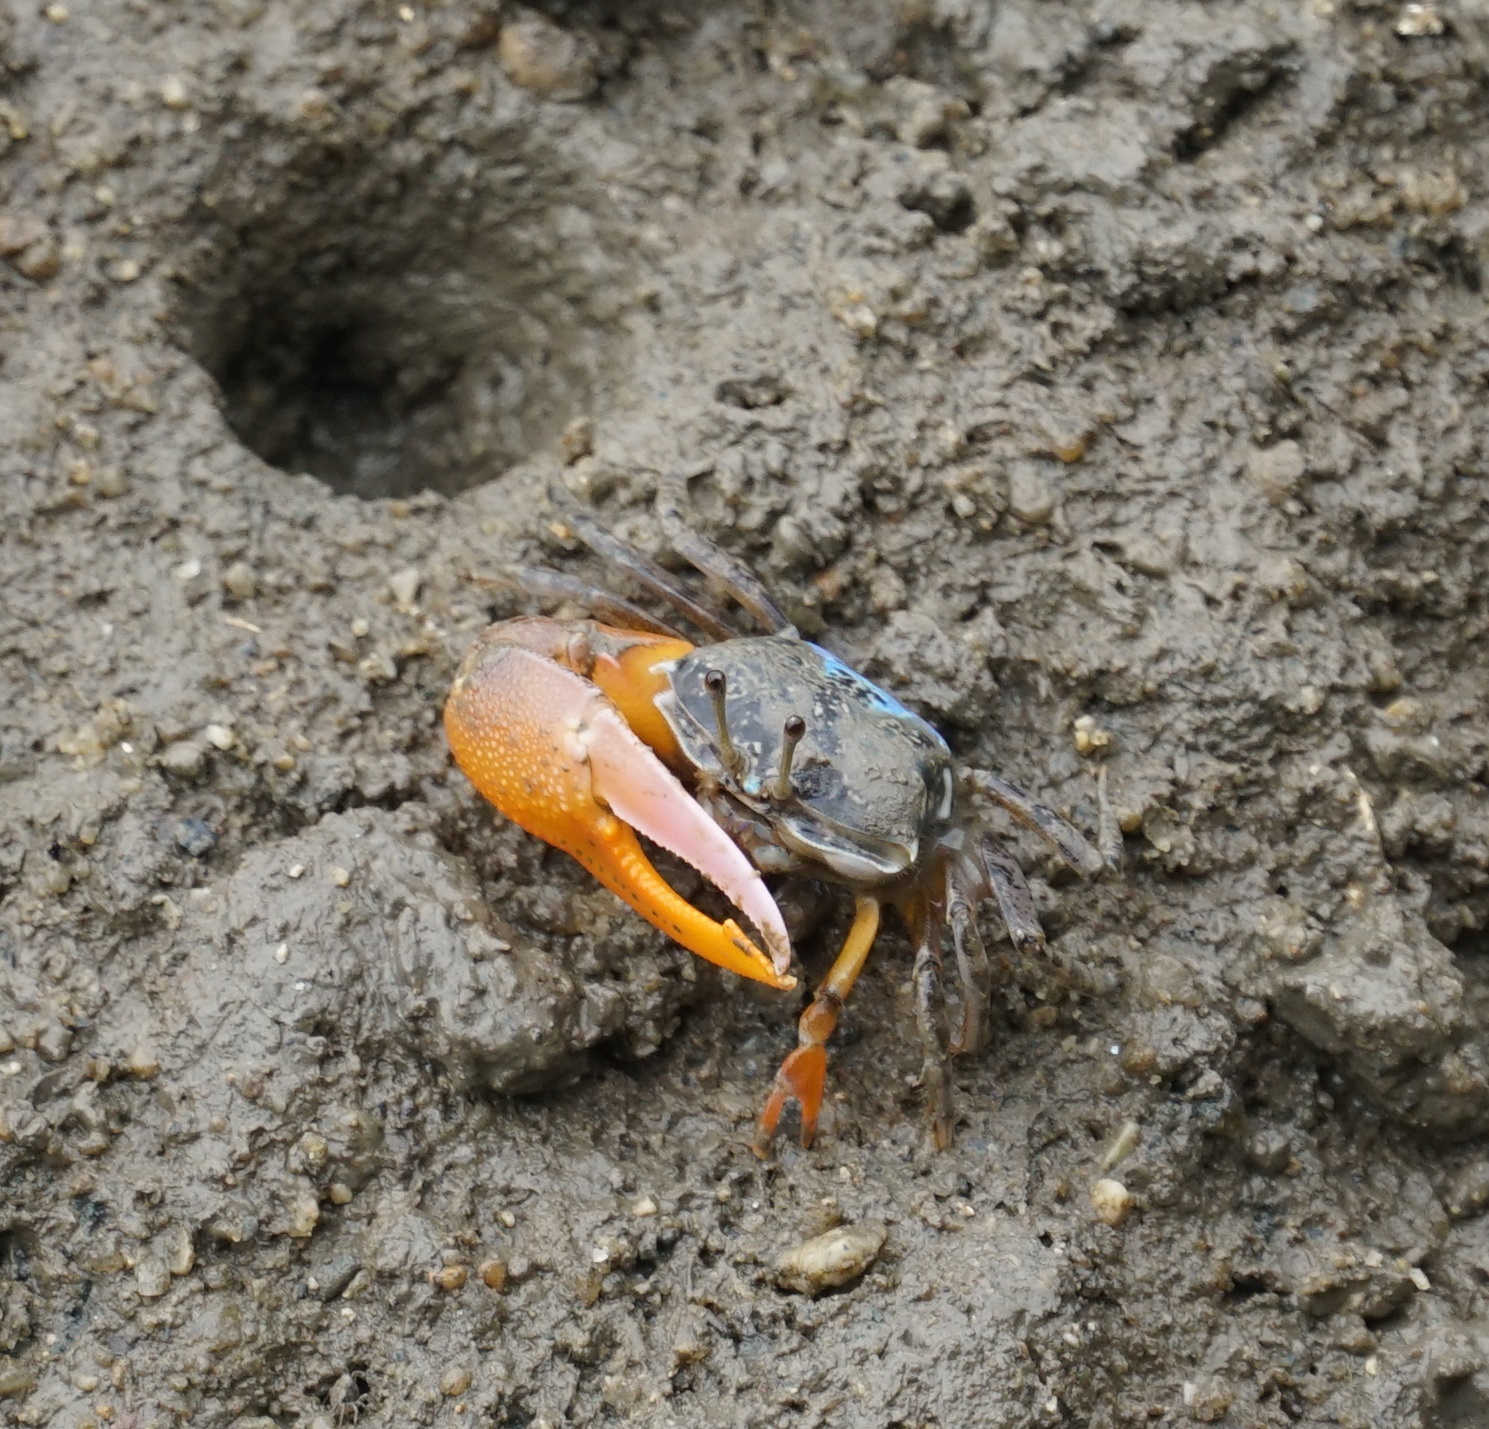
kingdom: Animalia
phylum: Arthropoda
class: Malacostraca
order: Decapoda
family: Ocypodidae
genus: Gelasimus
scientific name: Gelasimus vomeris
